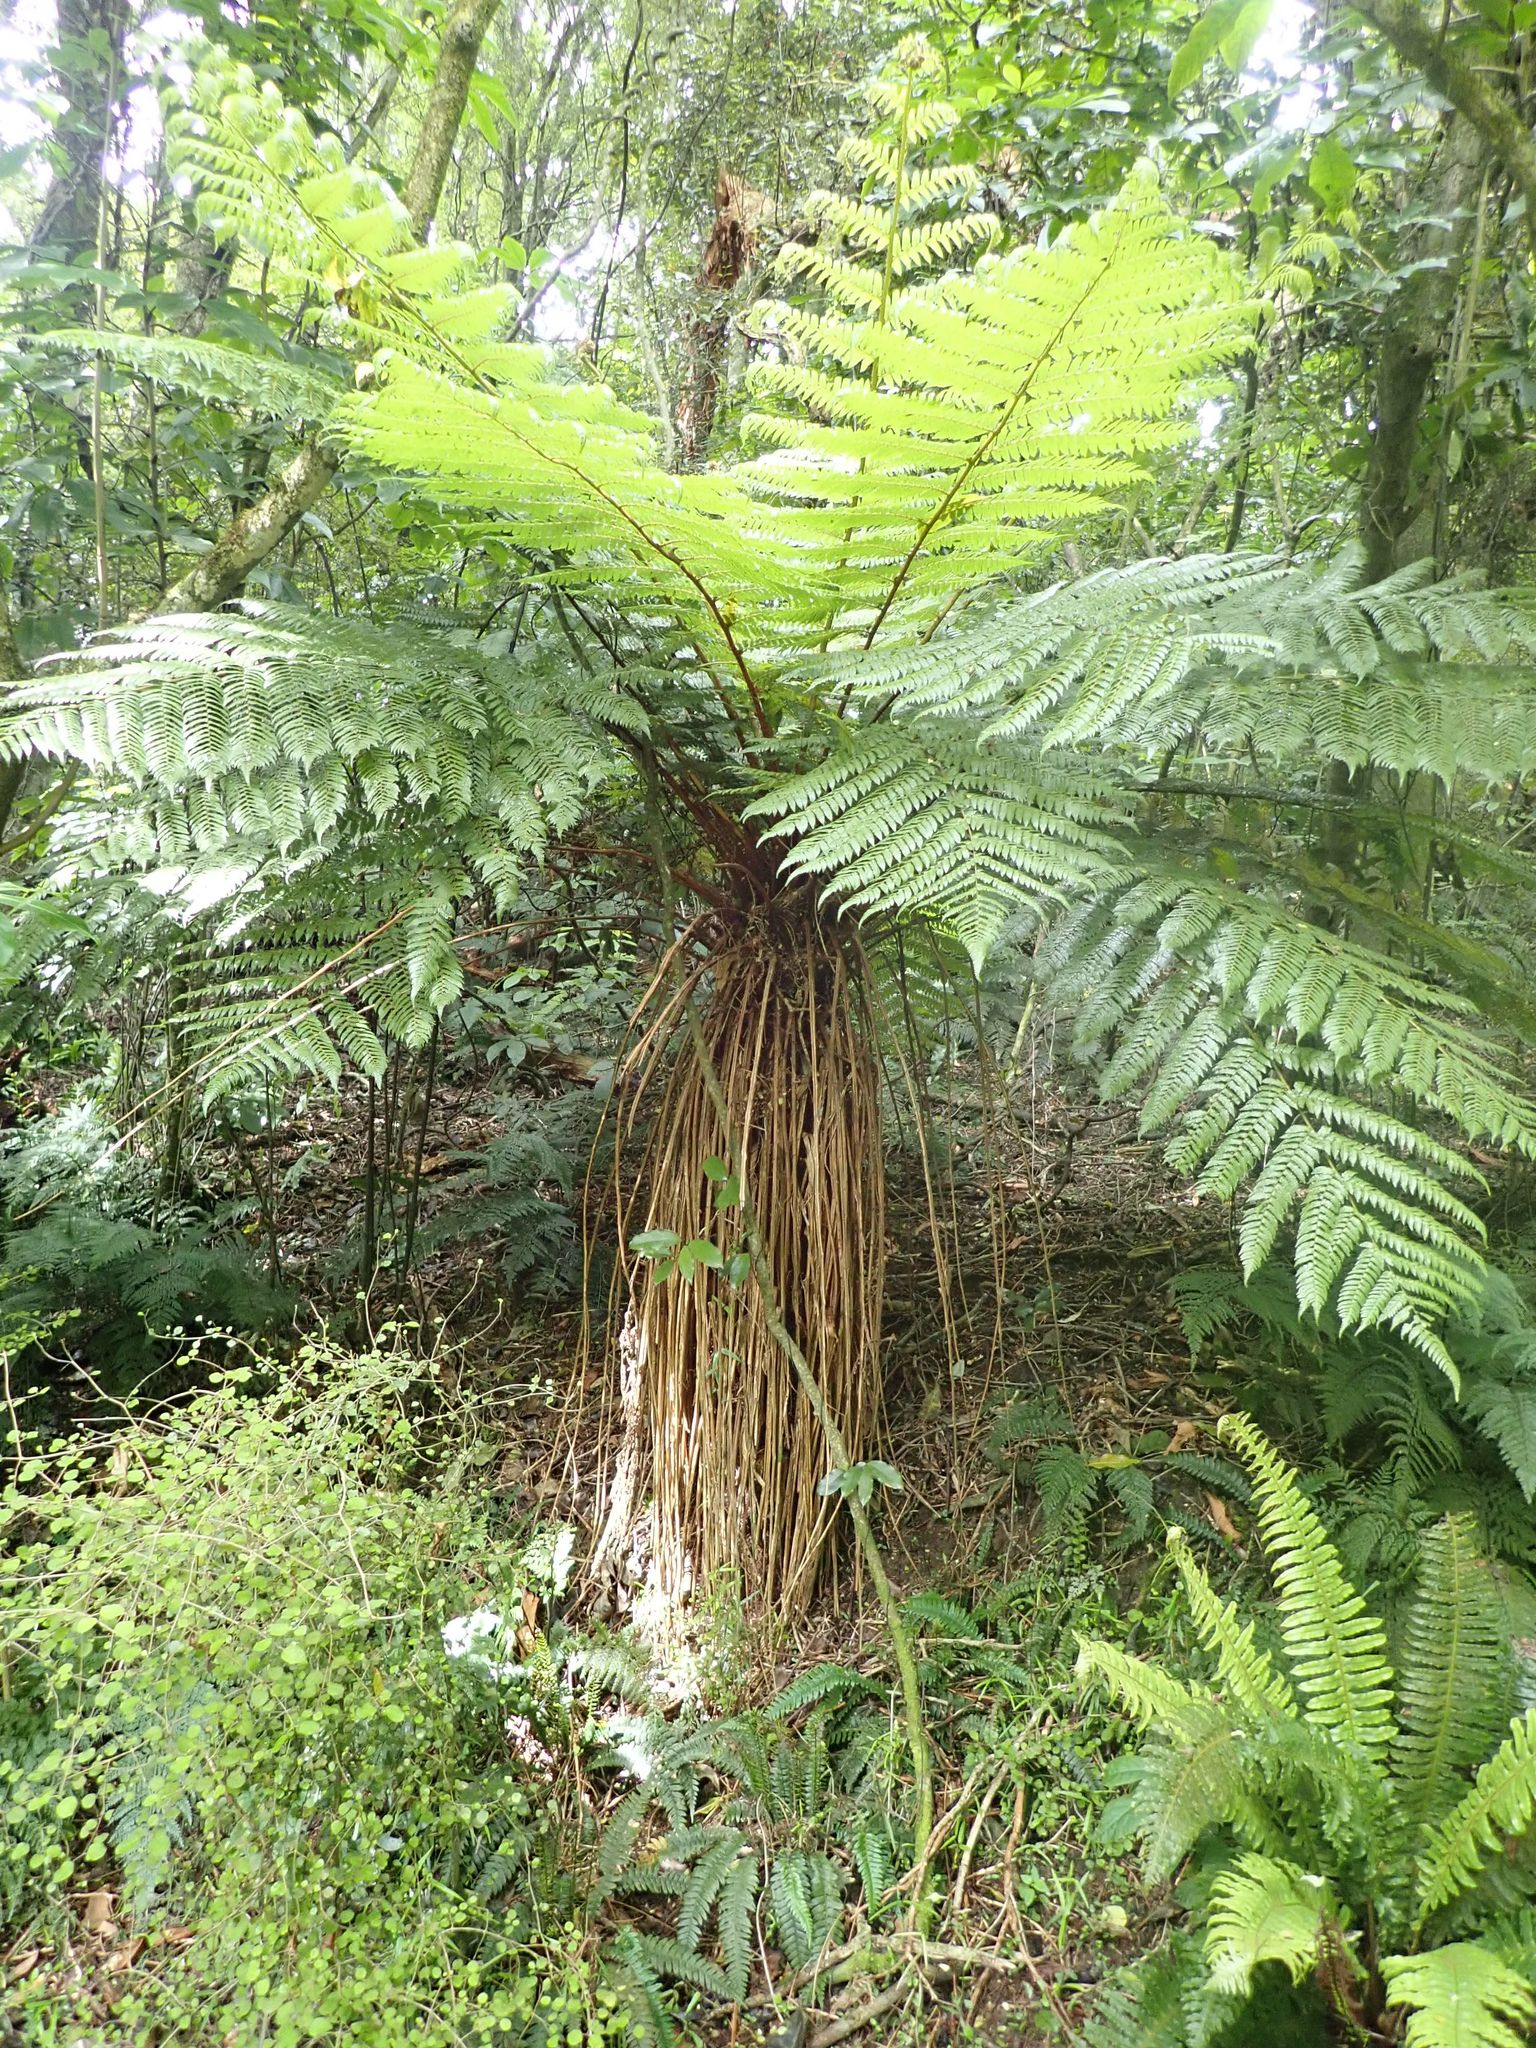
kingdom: Plantae
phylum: Tracheophyta
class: Polypodiopsida
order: Cyatheales
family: Cyatheaceae
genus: Alsophila
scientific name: Alsophila smithii
